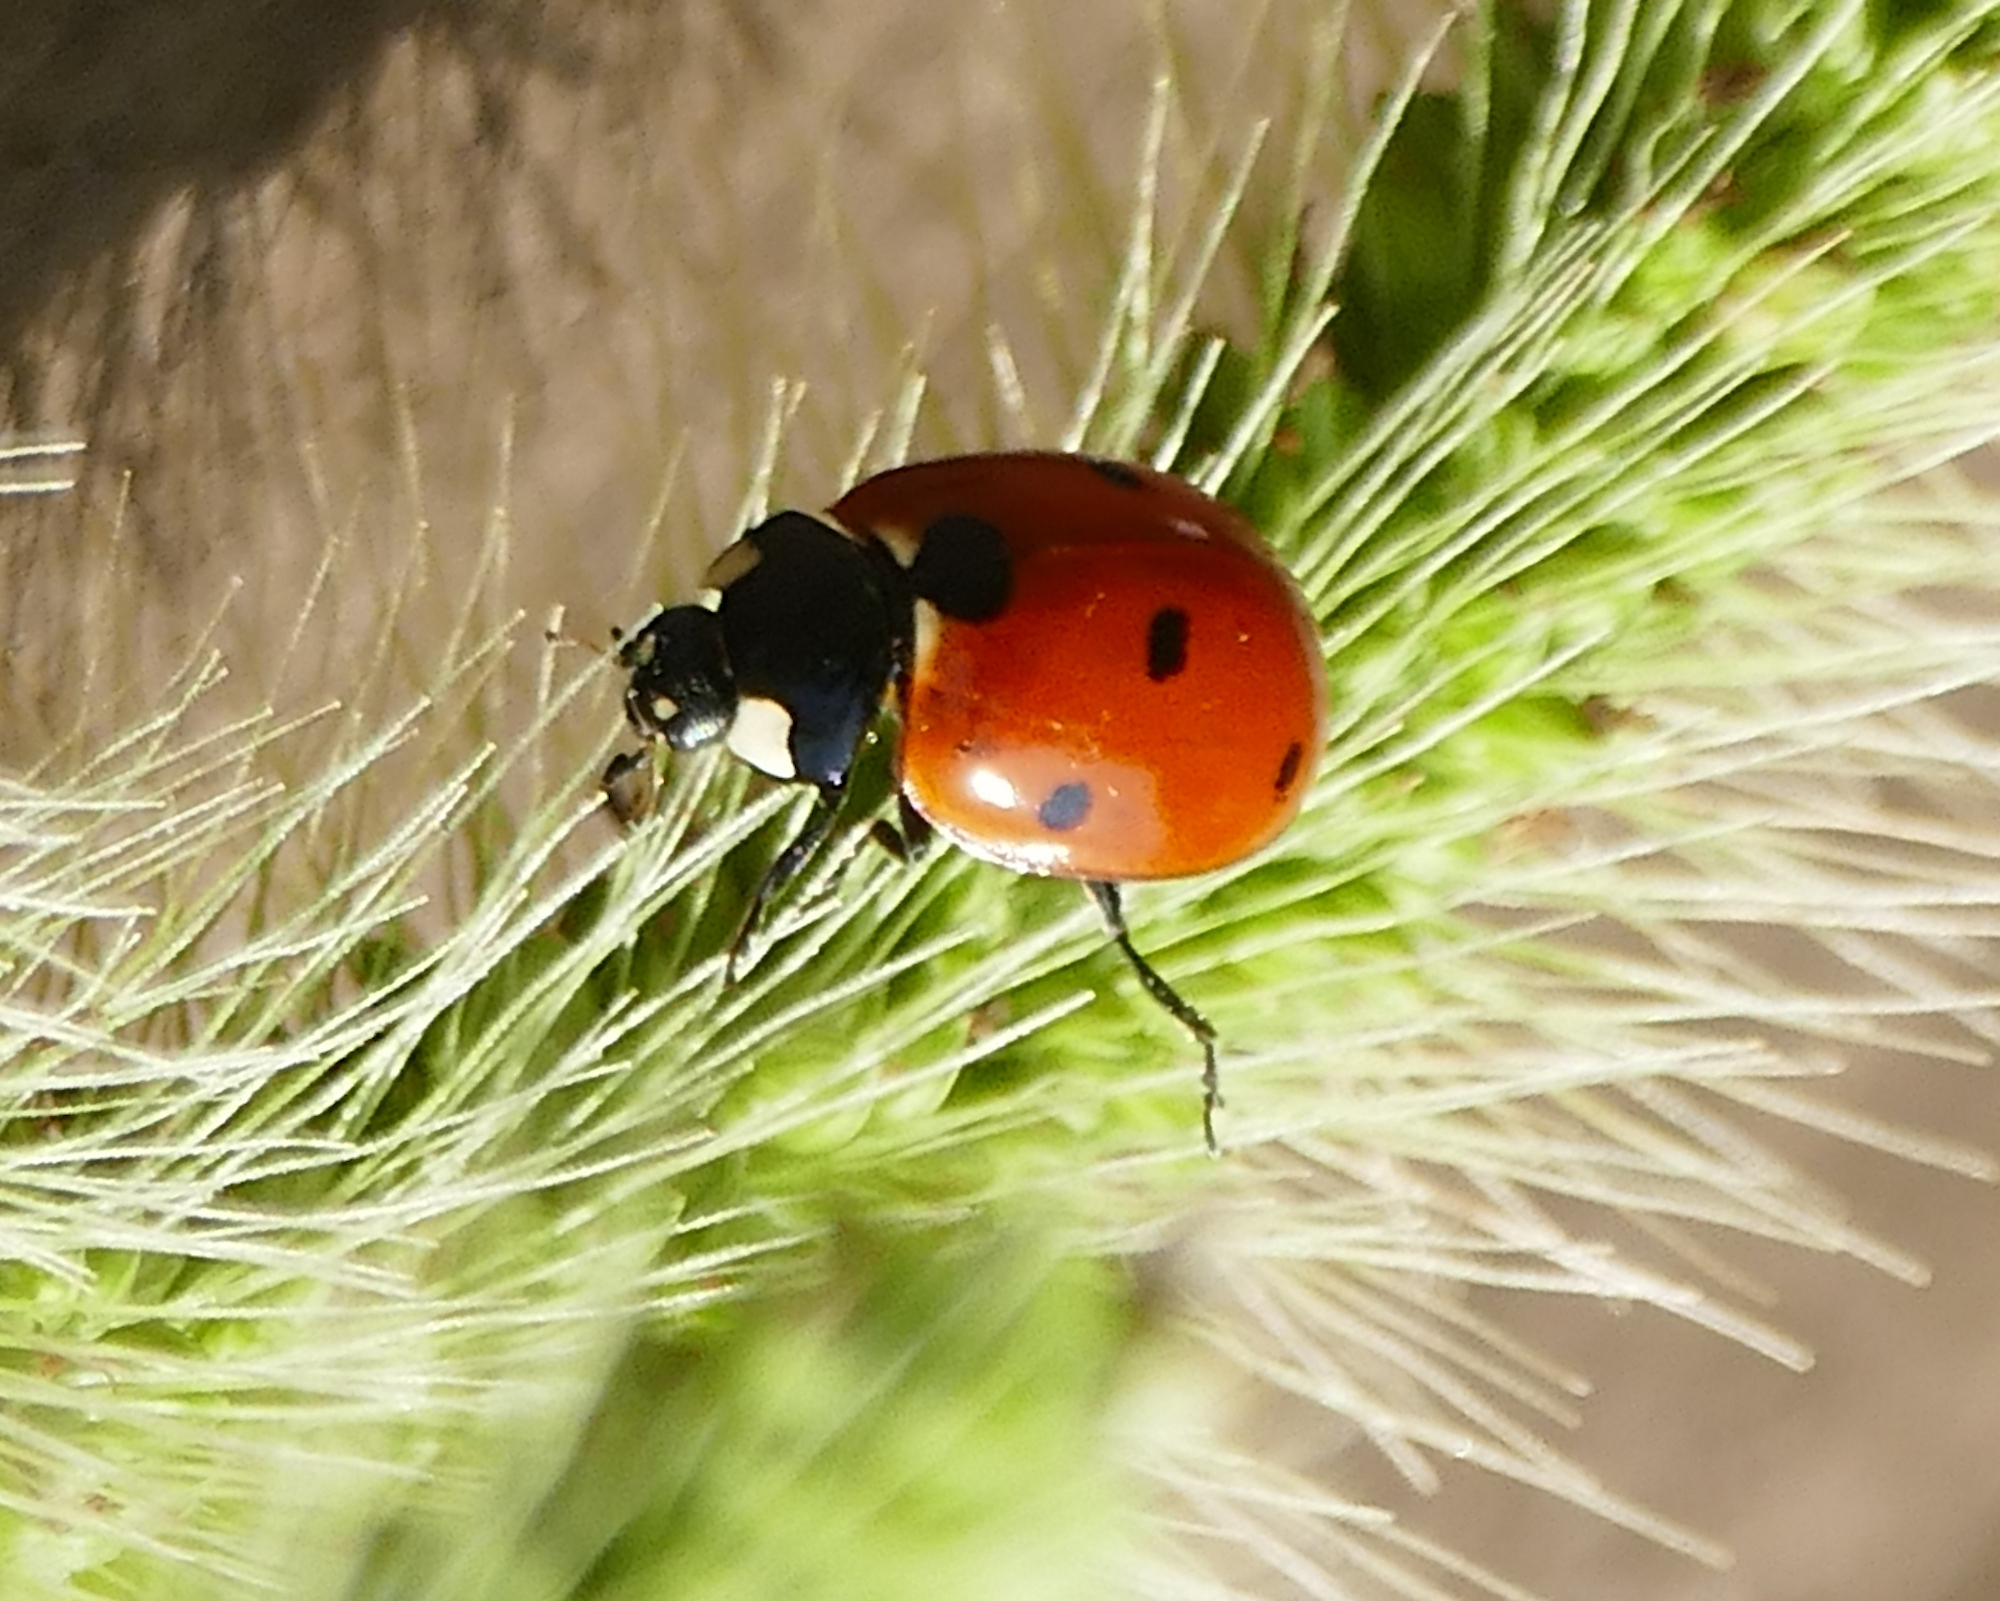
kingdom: Animalia
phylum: Arthropoda
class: Insecta
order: Coleoptera
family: Coccinellidae
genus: Coccinella
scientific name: Coccinella septempunctata
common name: Sevenspotted lady beetle
